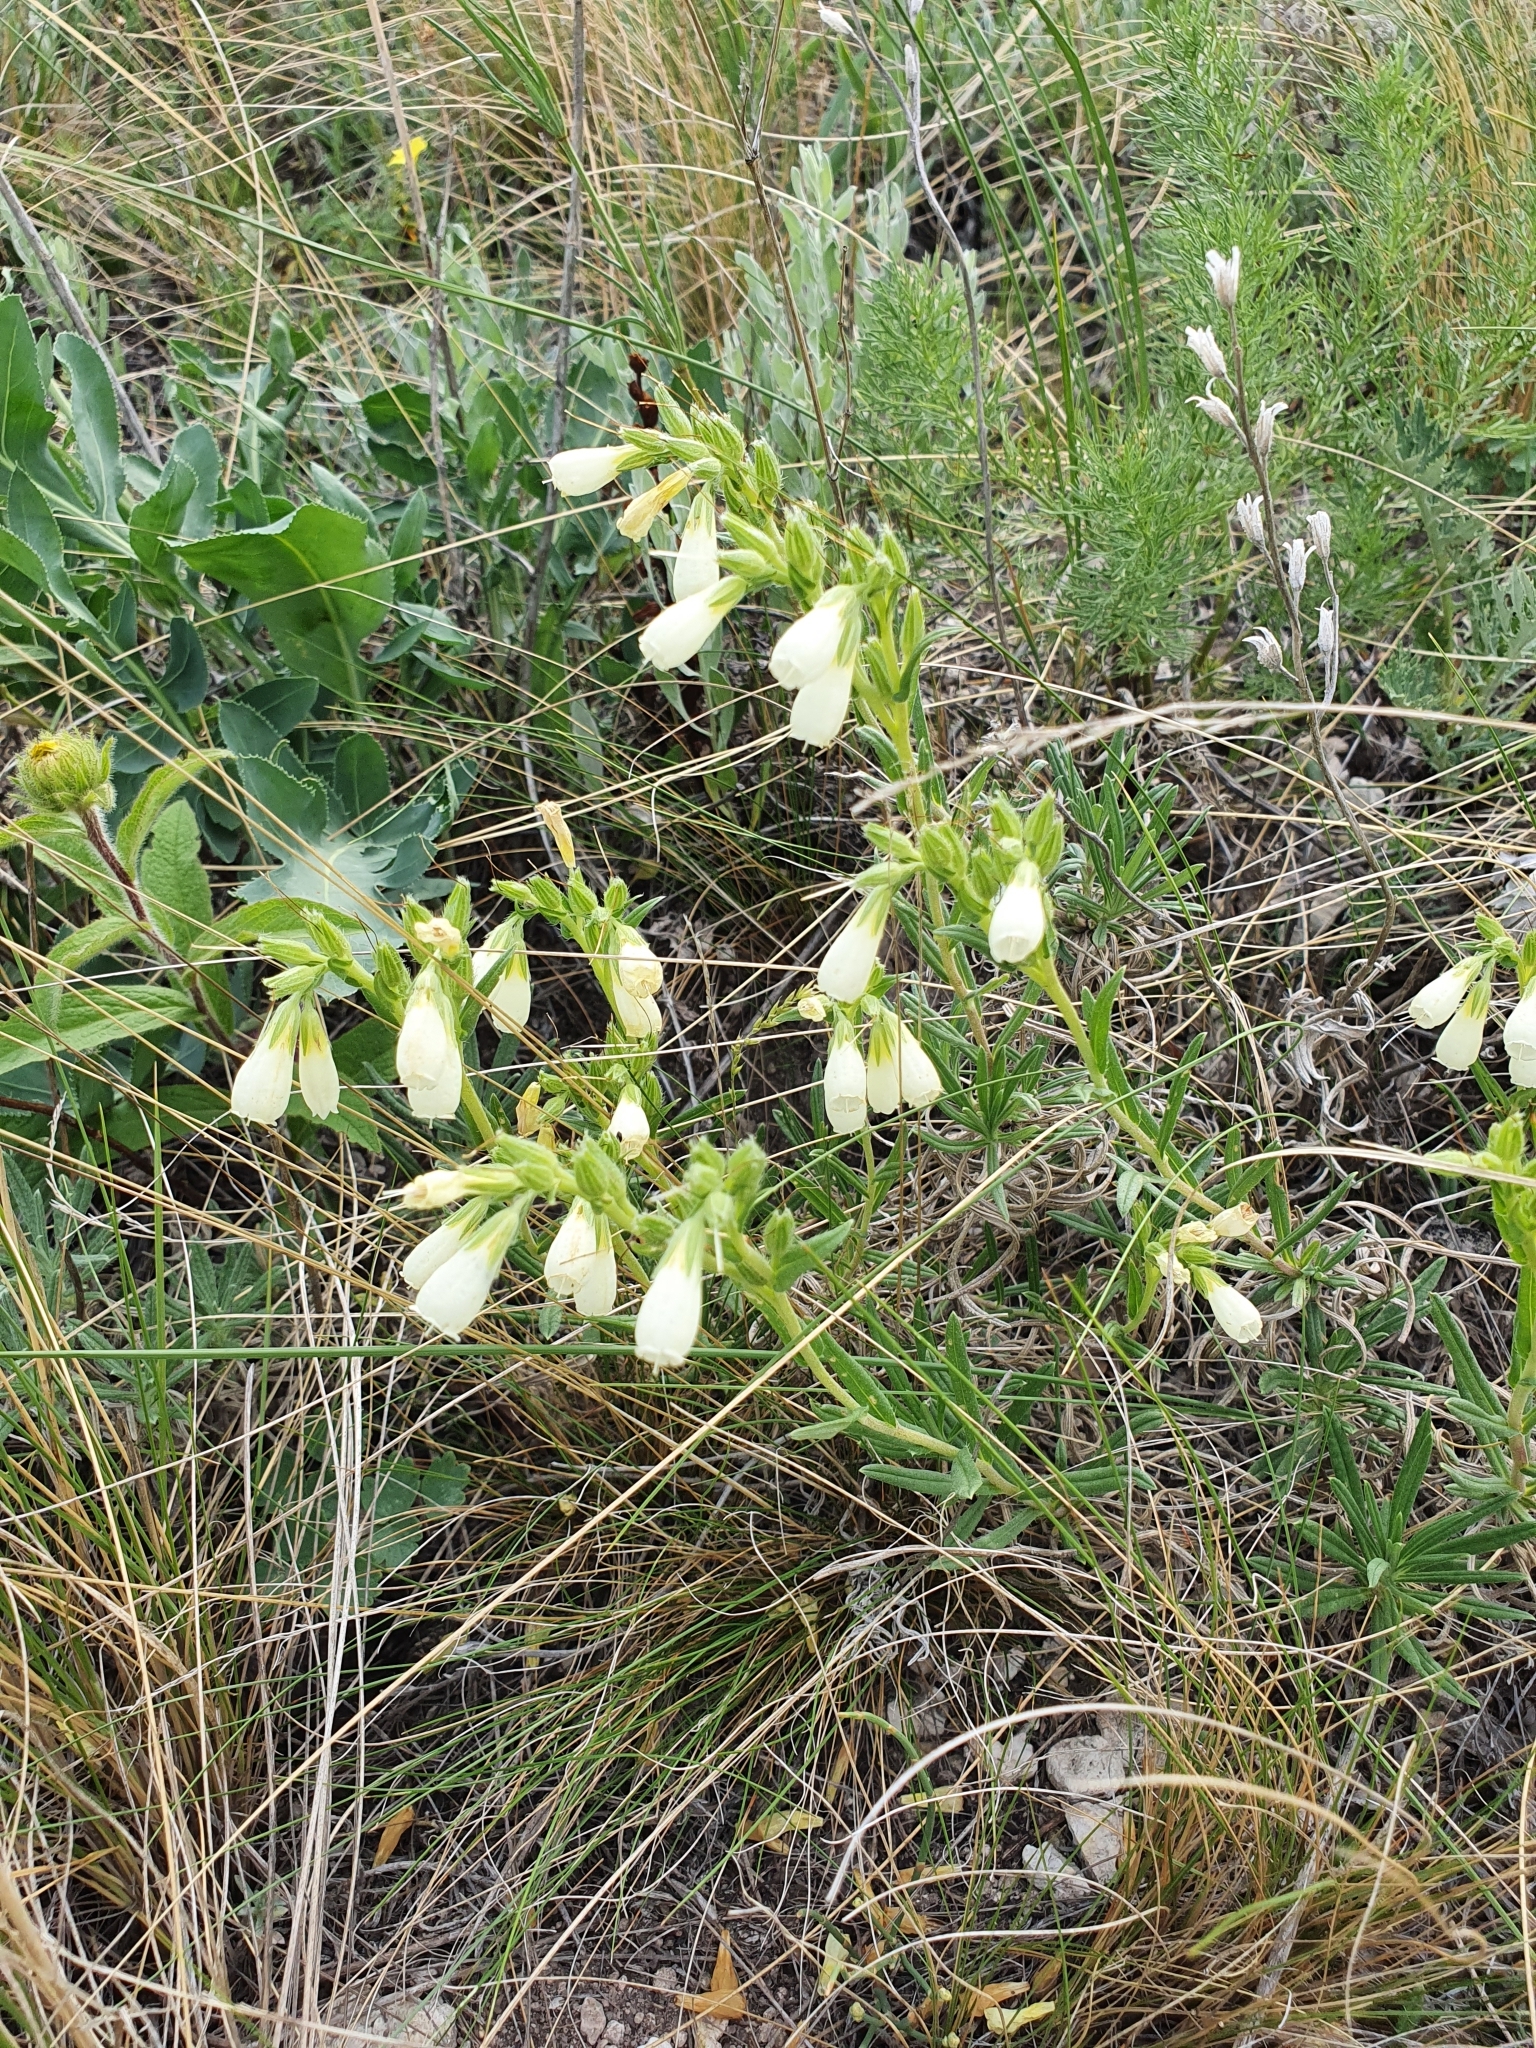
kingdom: Plantae
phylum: Tracheophyta
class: Magnoliopsida
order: Boraginales
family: Boraginaceae
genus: Onosma
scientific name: Onosma simplicissima
